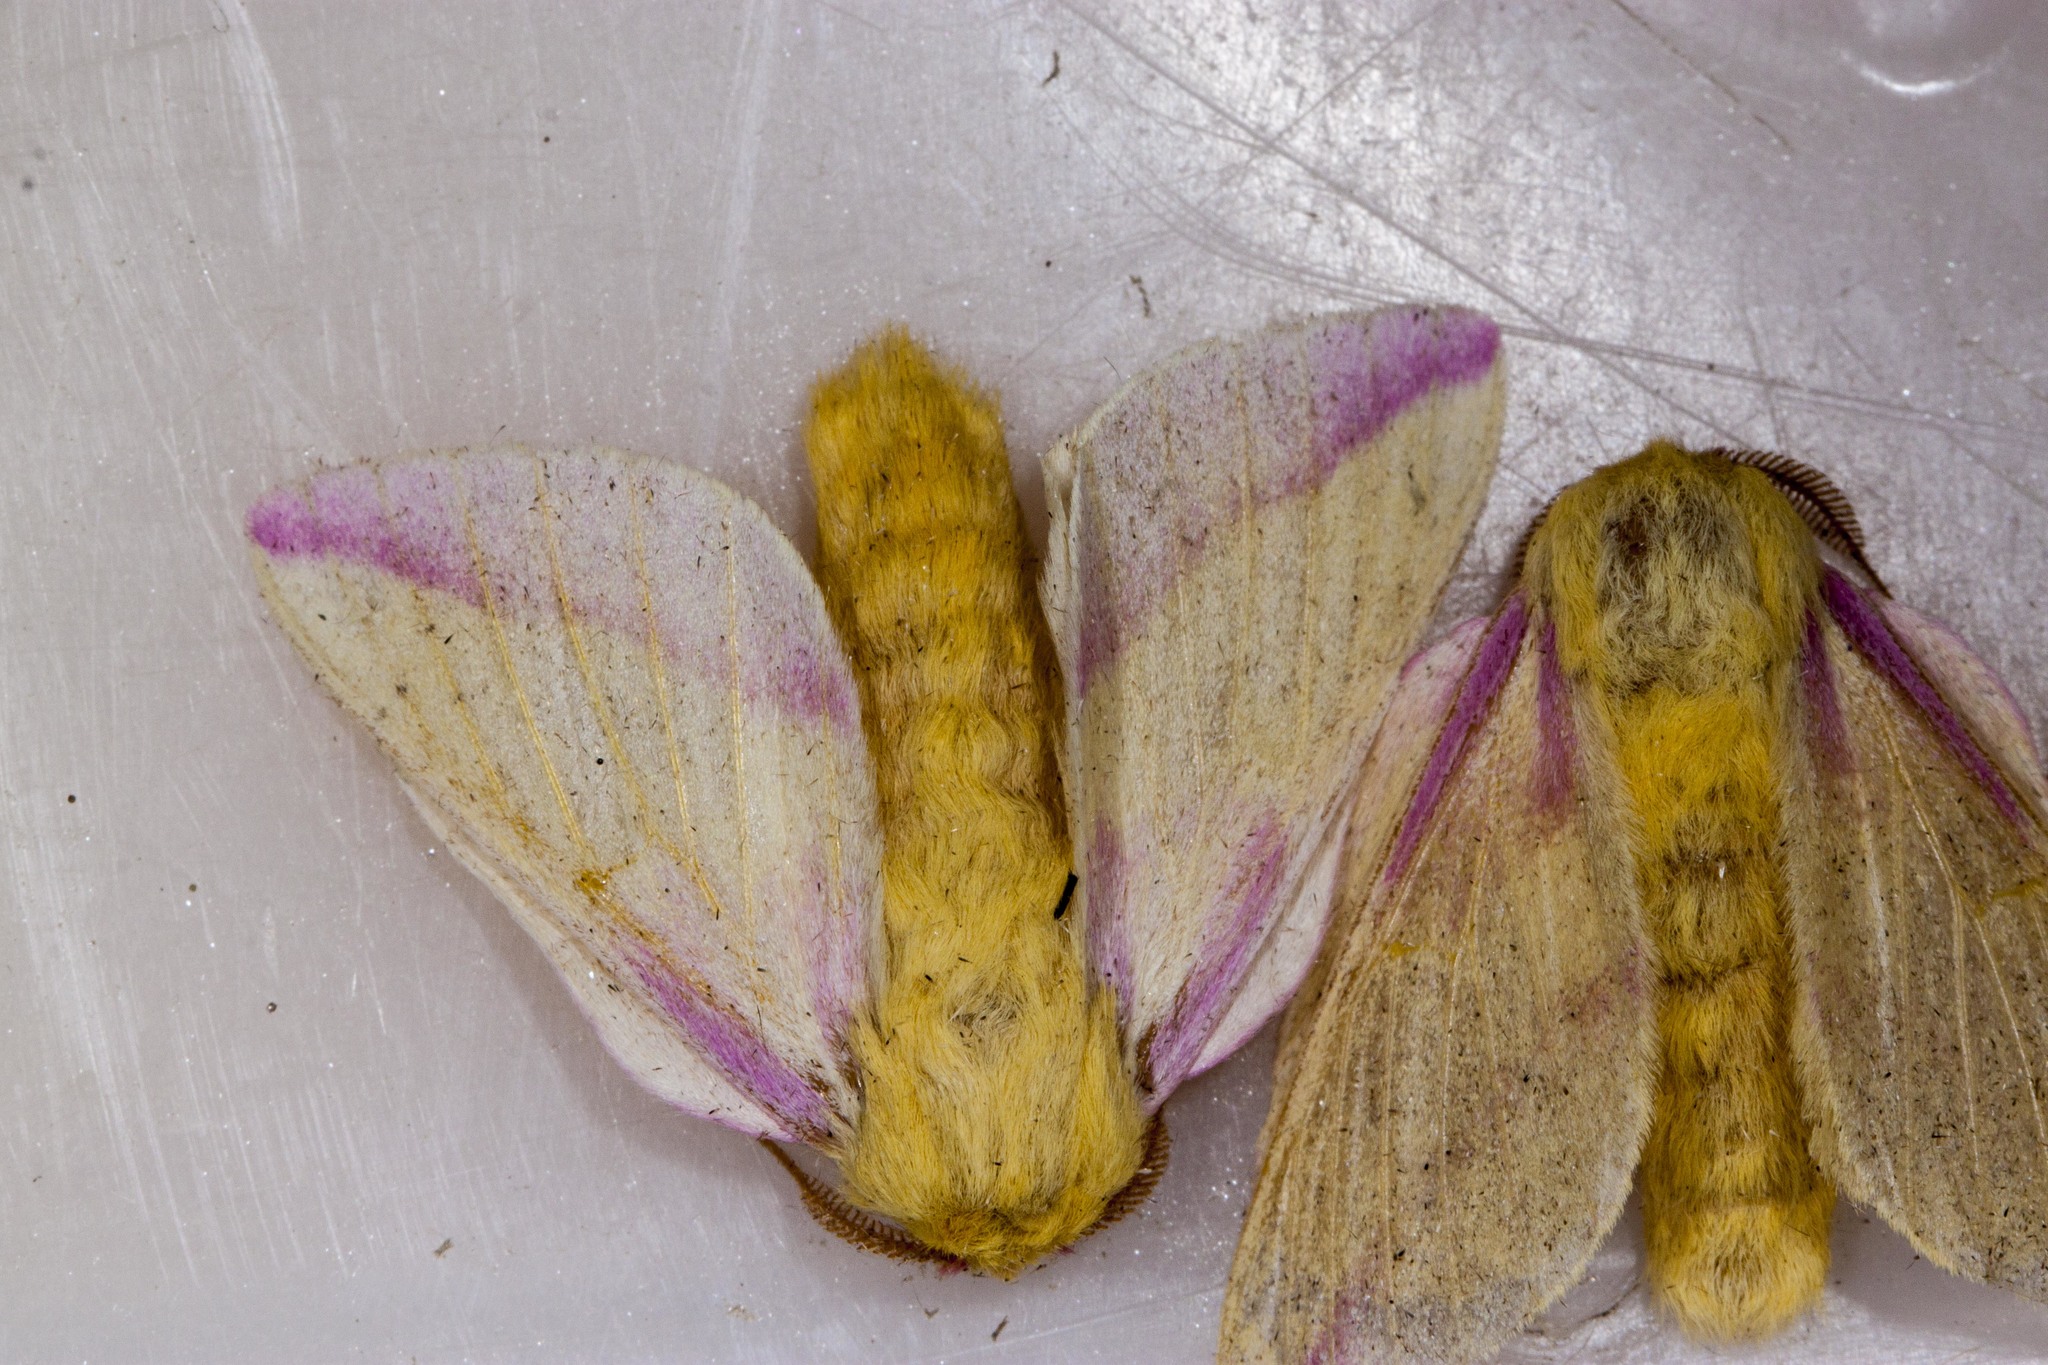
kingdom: Animalia
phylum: Arthropoda
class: Insecta
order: Lepidoptera
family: Saturniidae
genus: Dryocampa
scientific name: Dryocampa rubicunda
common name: Rosy maple moth
